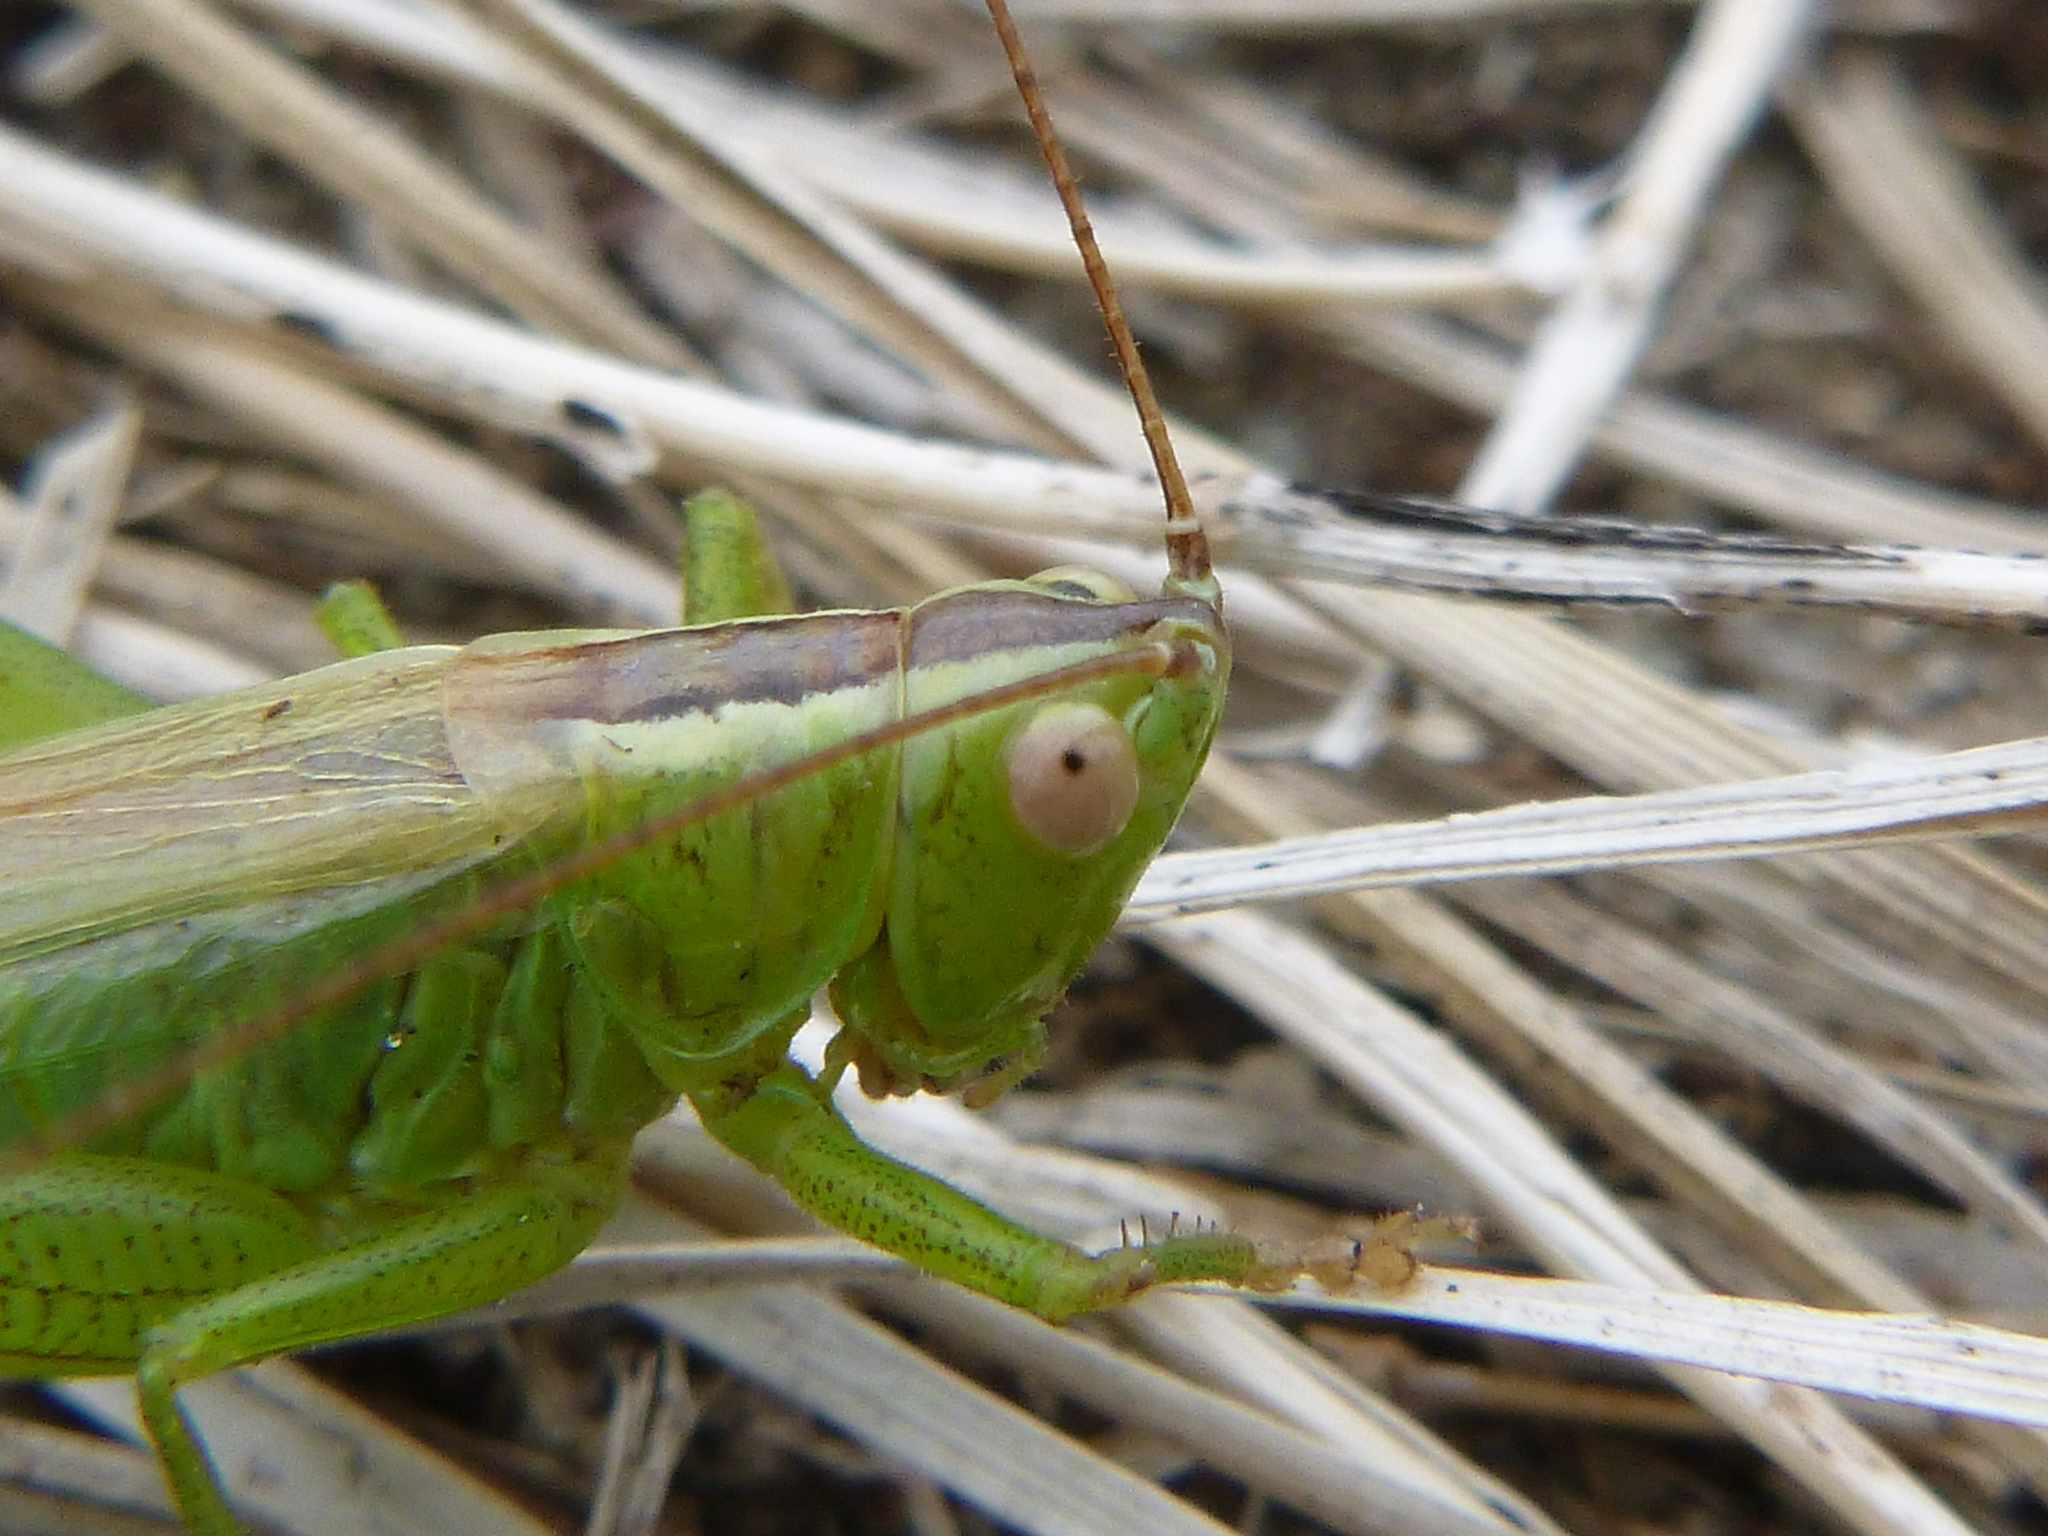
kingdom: Animalia
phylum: Arthropoda
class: Insecta
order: Orthoptera
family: Tettigoniidae
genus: Conocephalus
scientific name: Conocephalus fuscus
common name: Long-winged conehead
